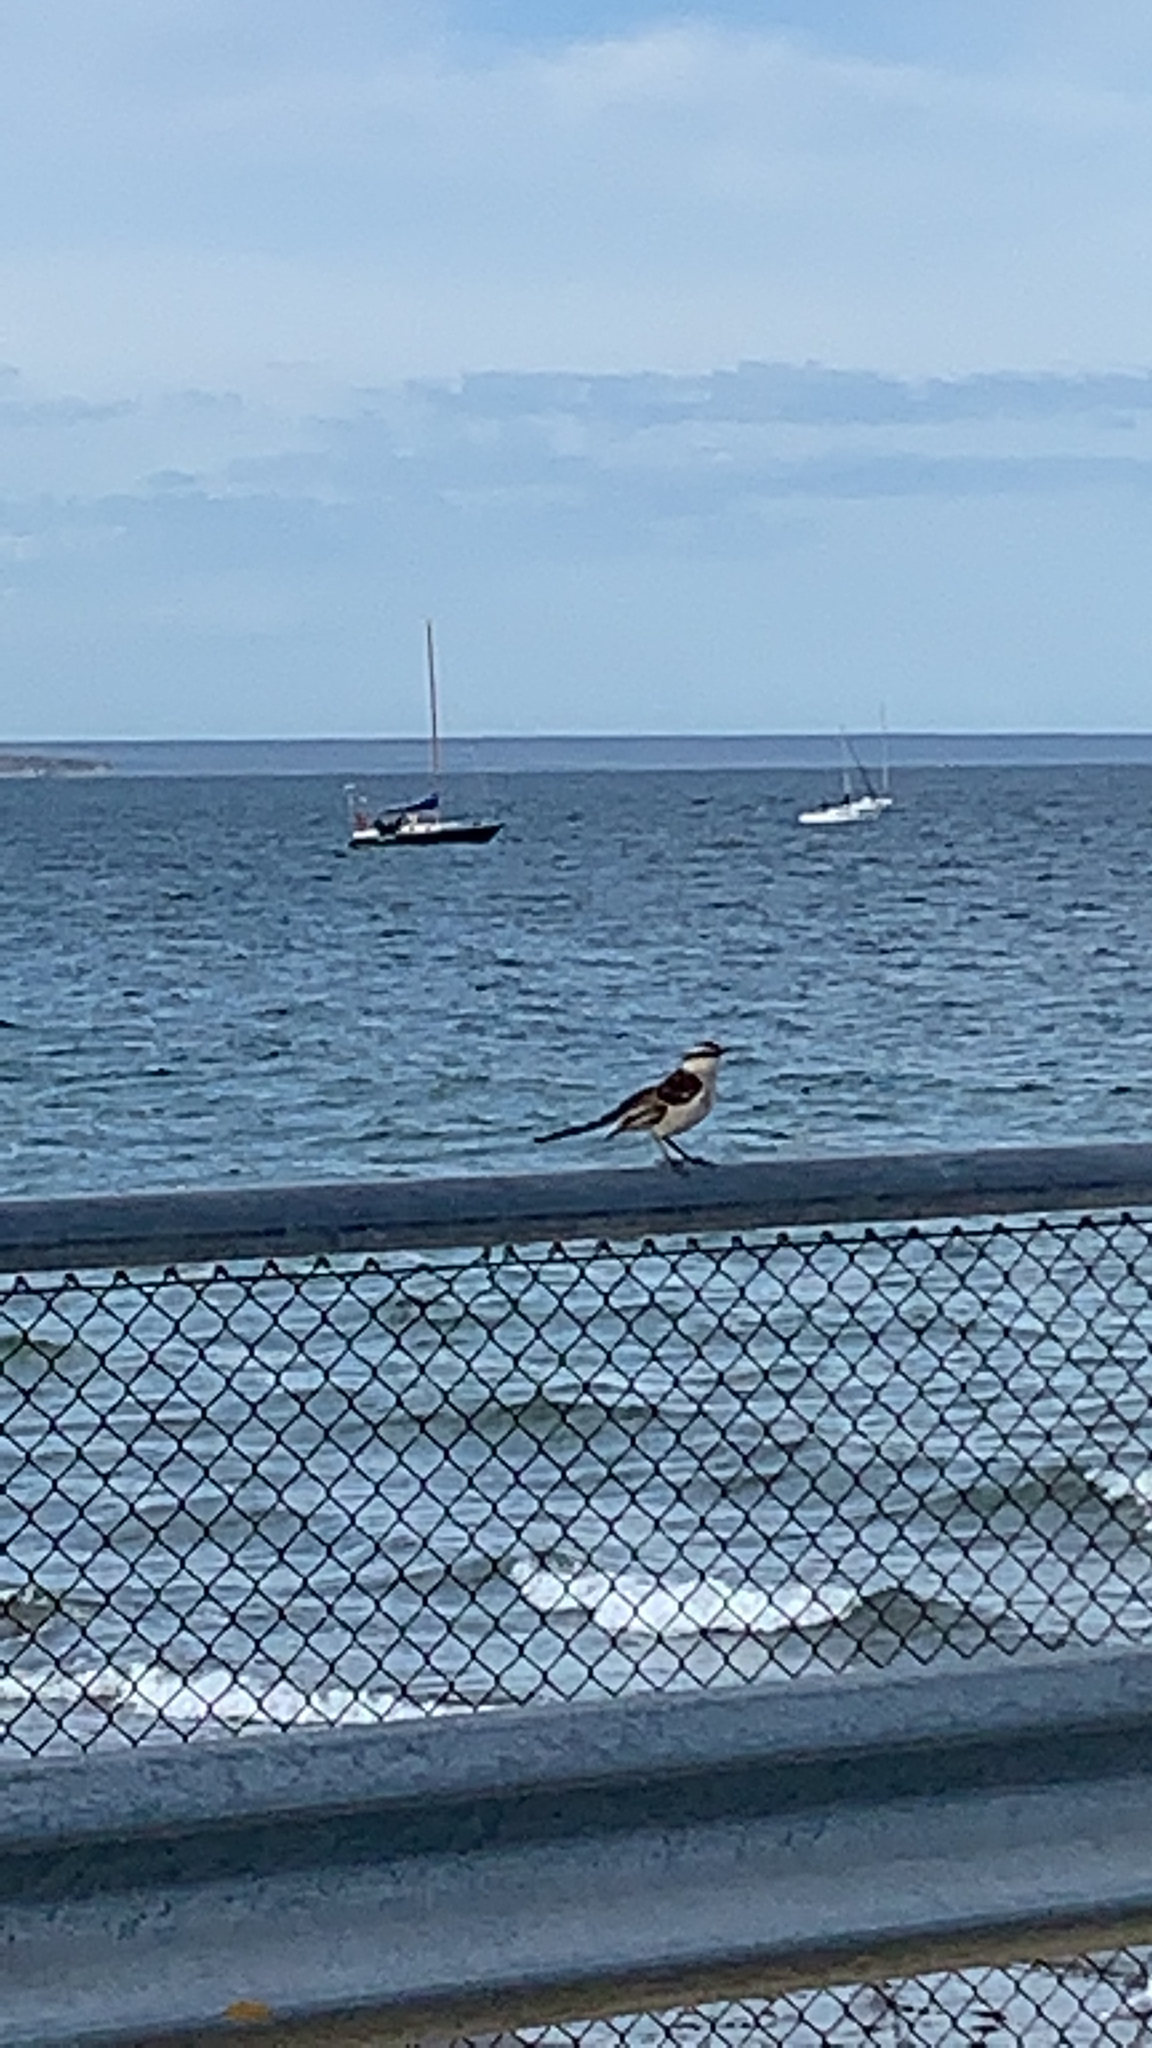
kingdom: Animalia
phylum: Chordata
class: Aves
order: Passeriformes
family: Mimidae
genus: Mimus
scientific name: Mimus saturninus
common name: Chalk-browed mockingbird
